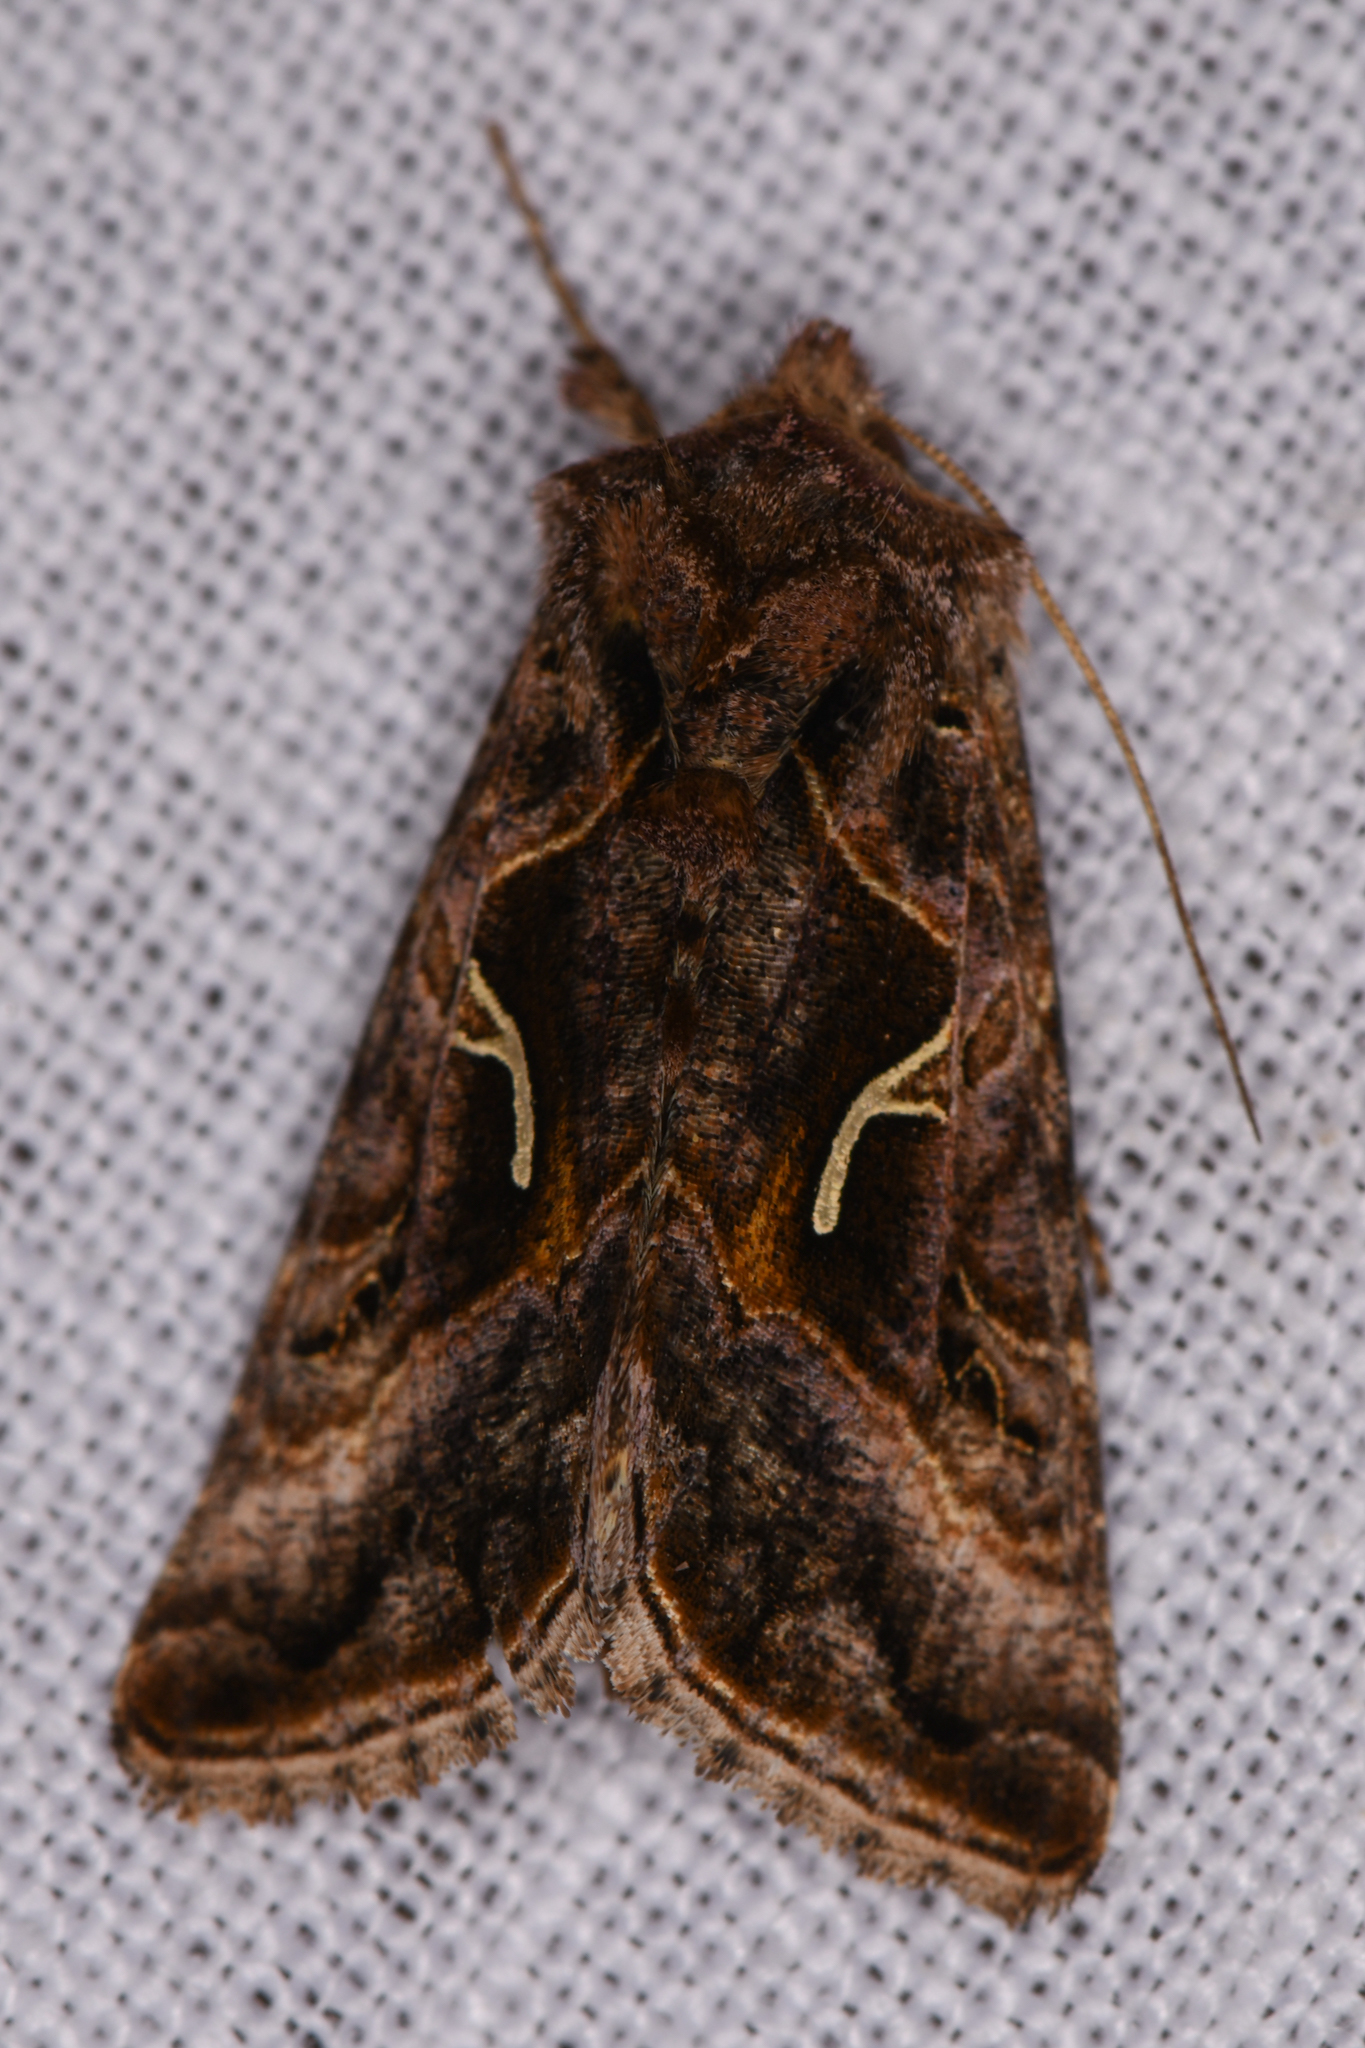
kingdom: Animalia
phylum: Arthropoda
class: Insecta
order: Lepidoptera
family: Noctuidae
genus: Autographa
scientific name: Autographa sansoni
